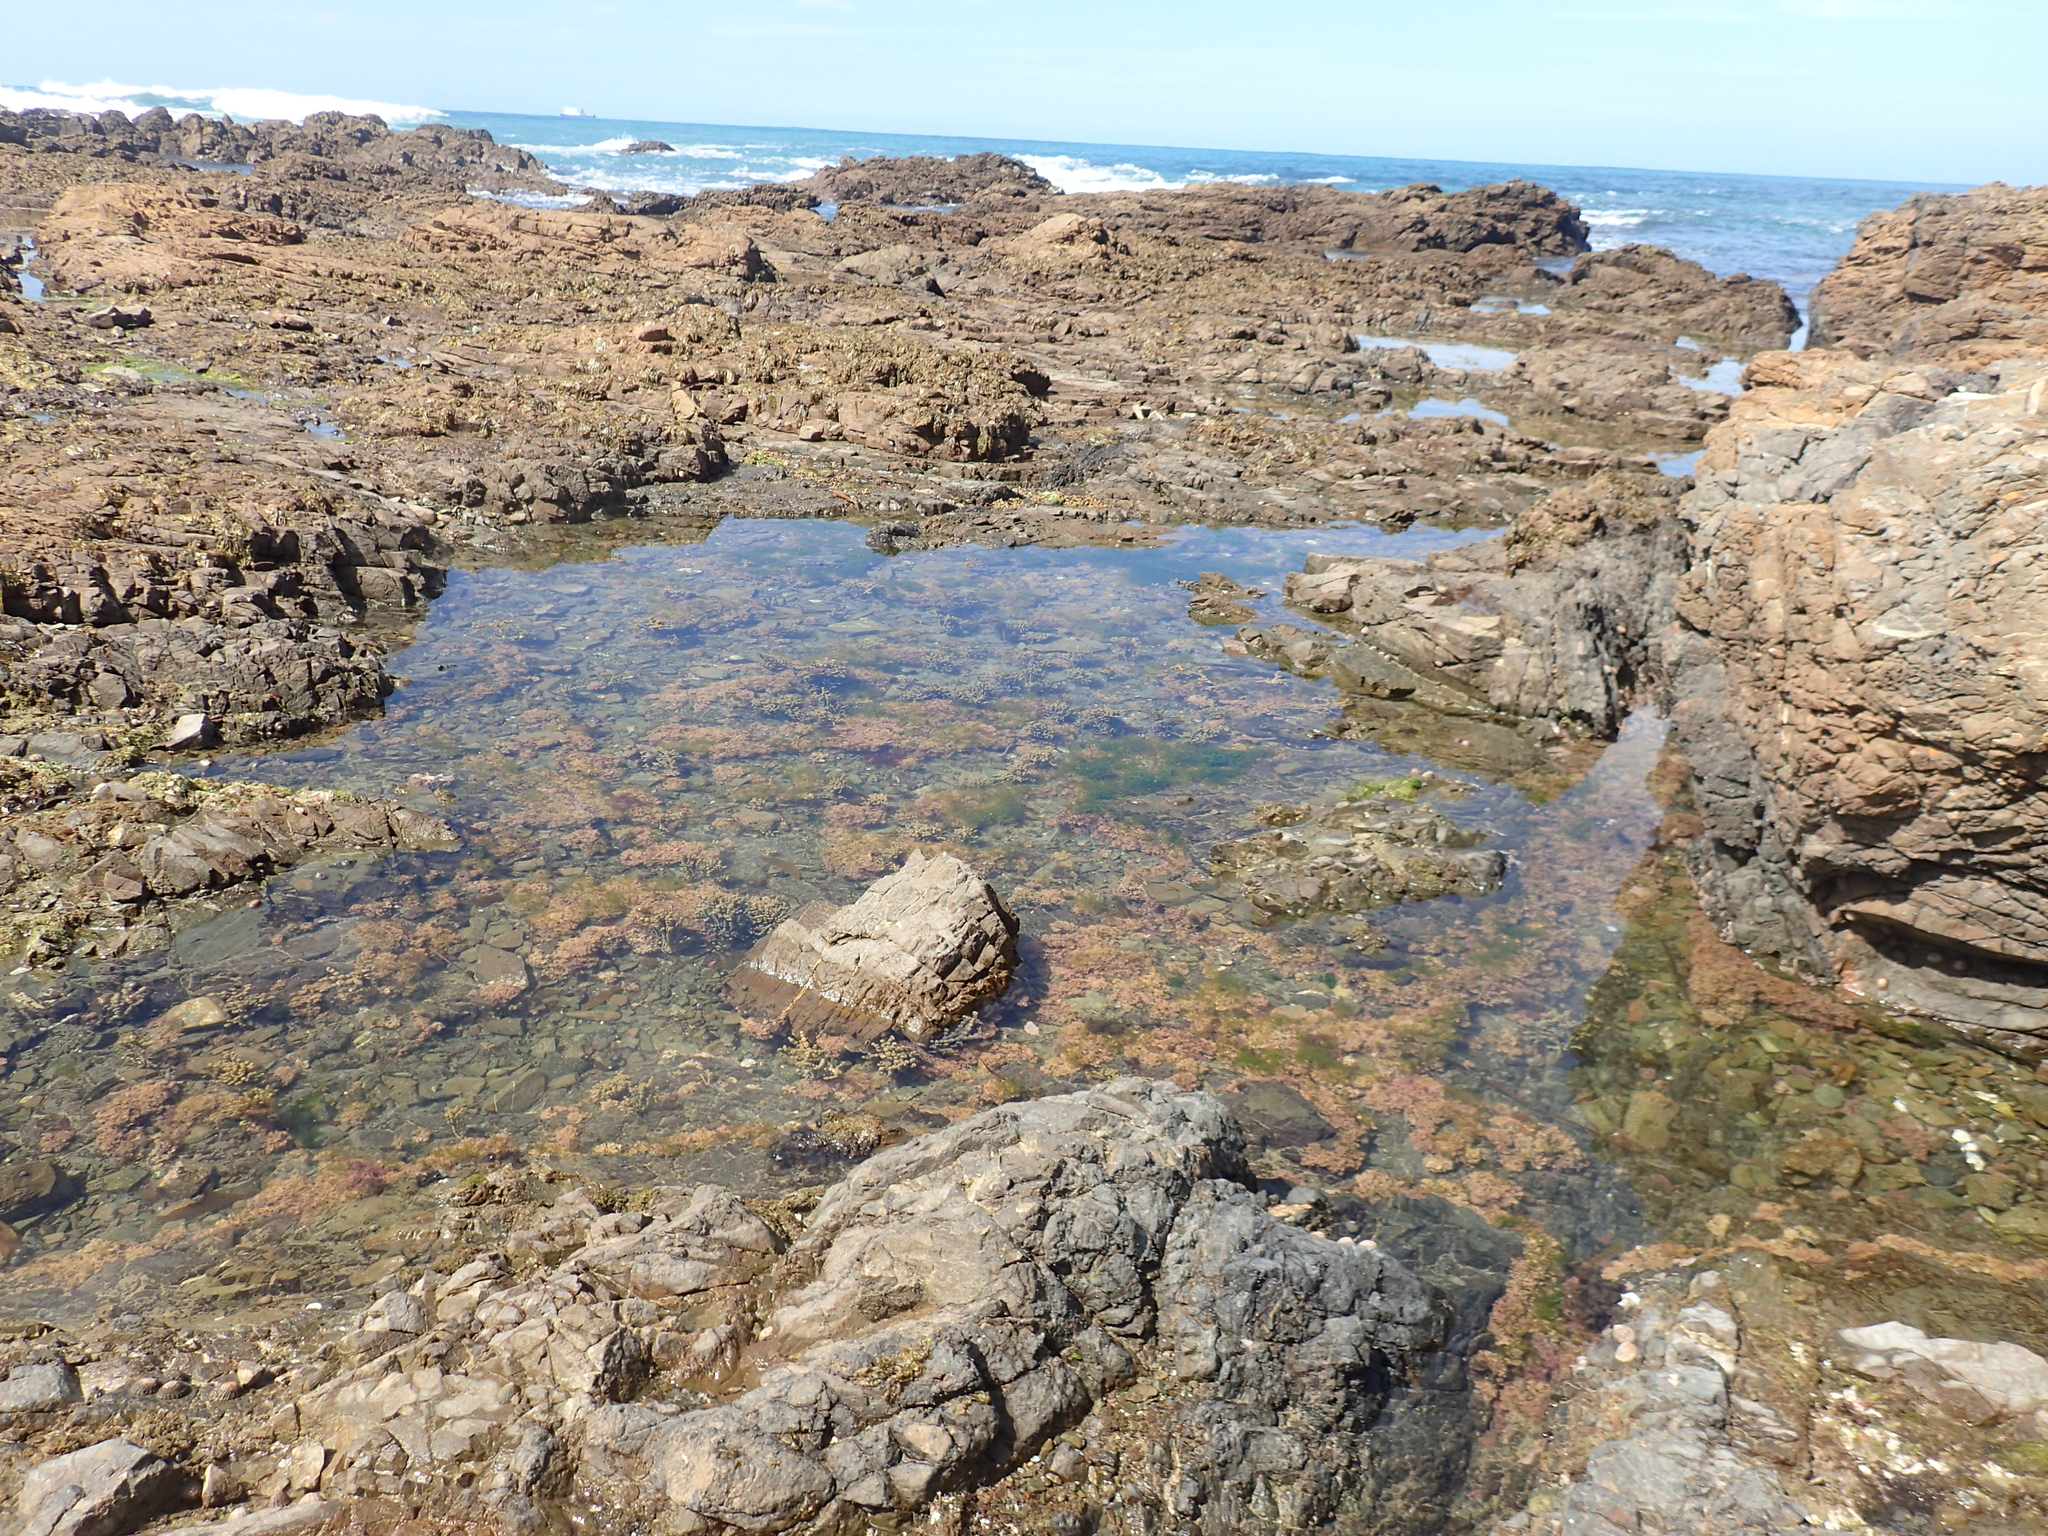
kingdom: Animalia
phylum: Cnidaria
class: Anthozoa
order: Actiniaria
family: Actiniidae
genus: Actinia
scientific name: Actinia tenebrosa
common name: Waratah anemone
